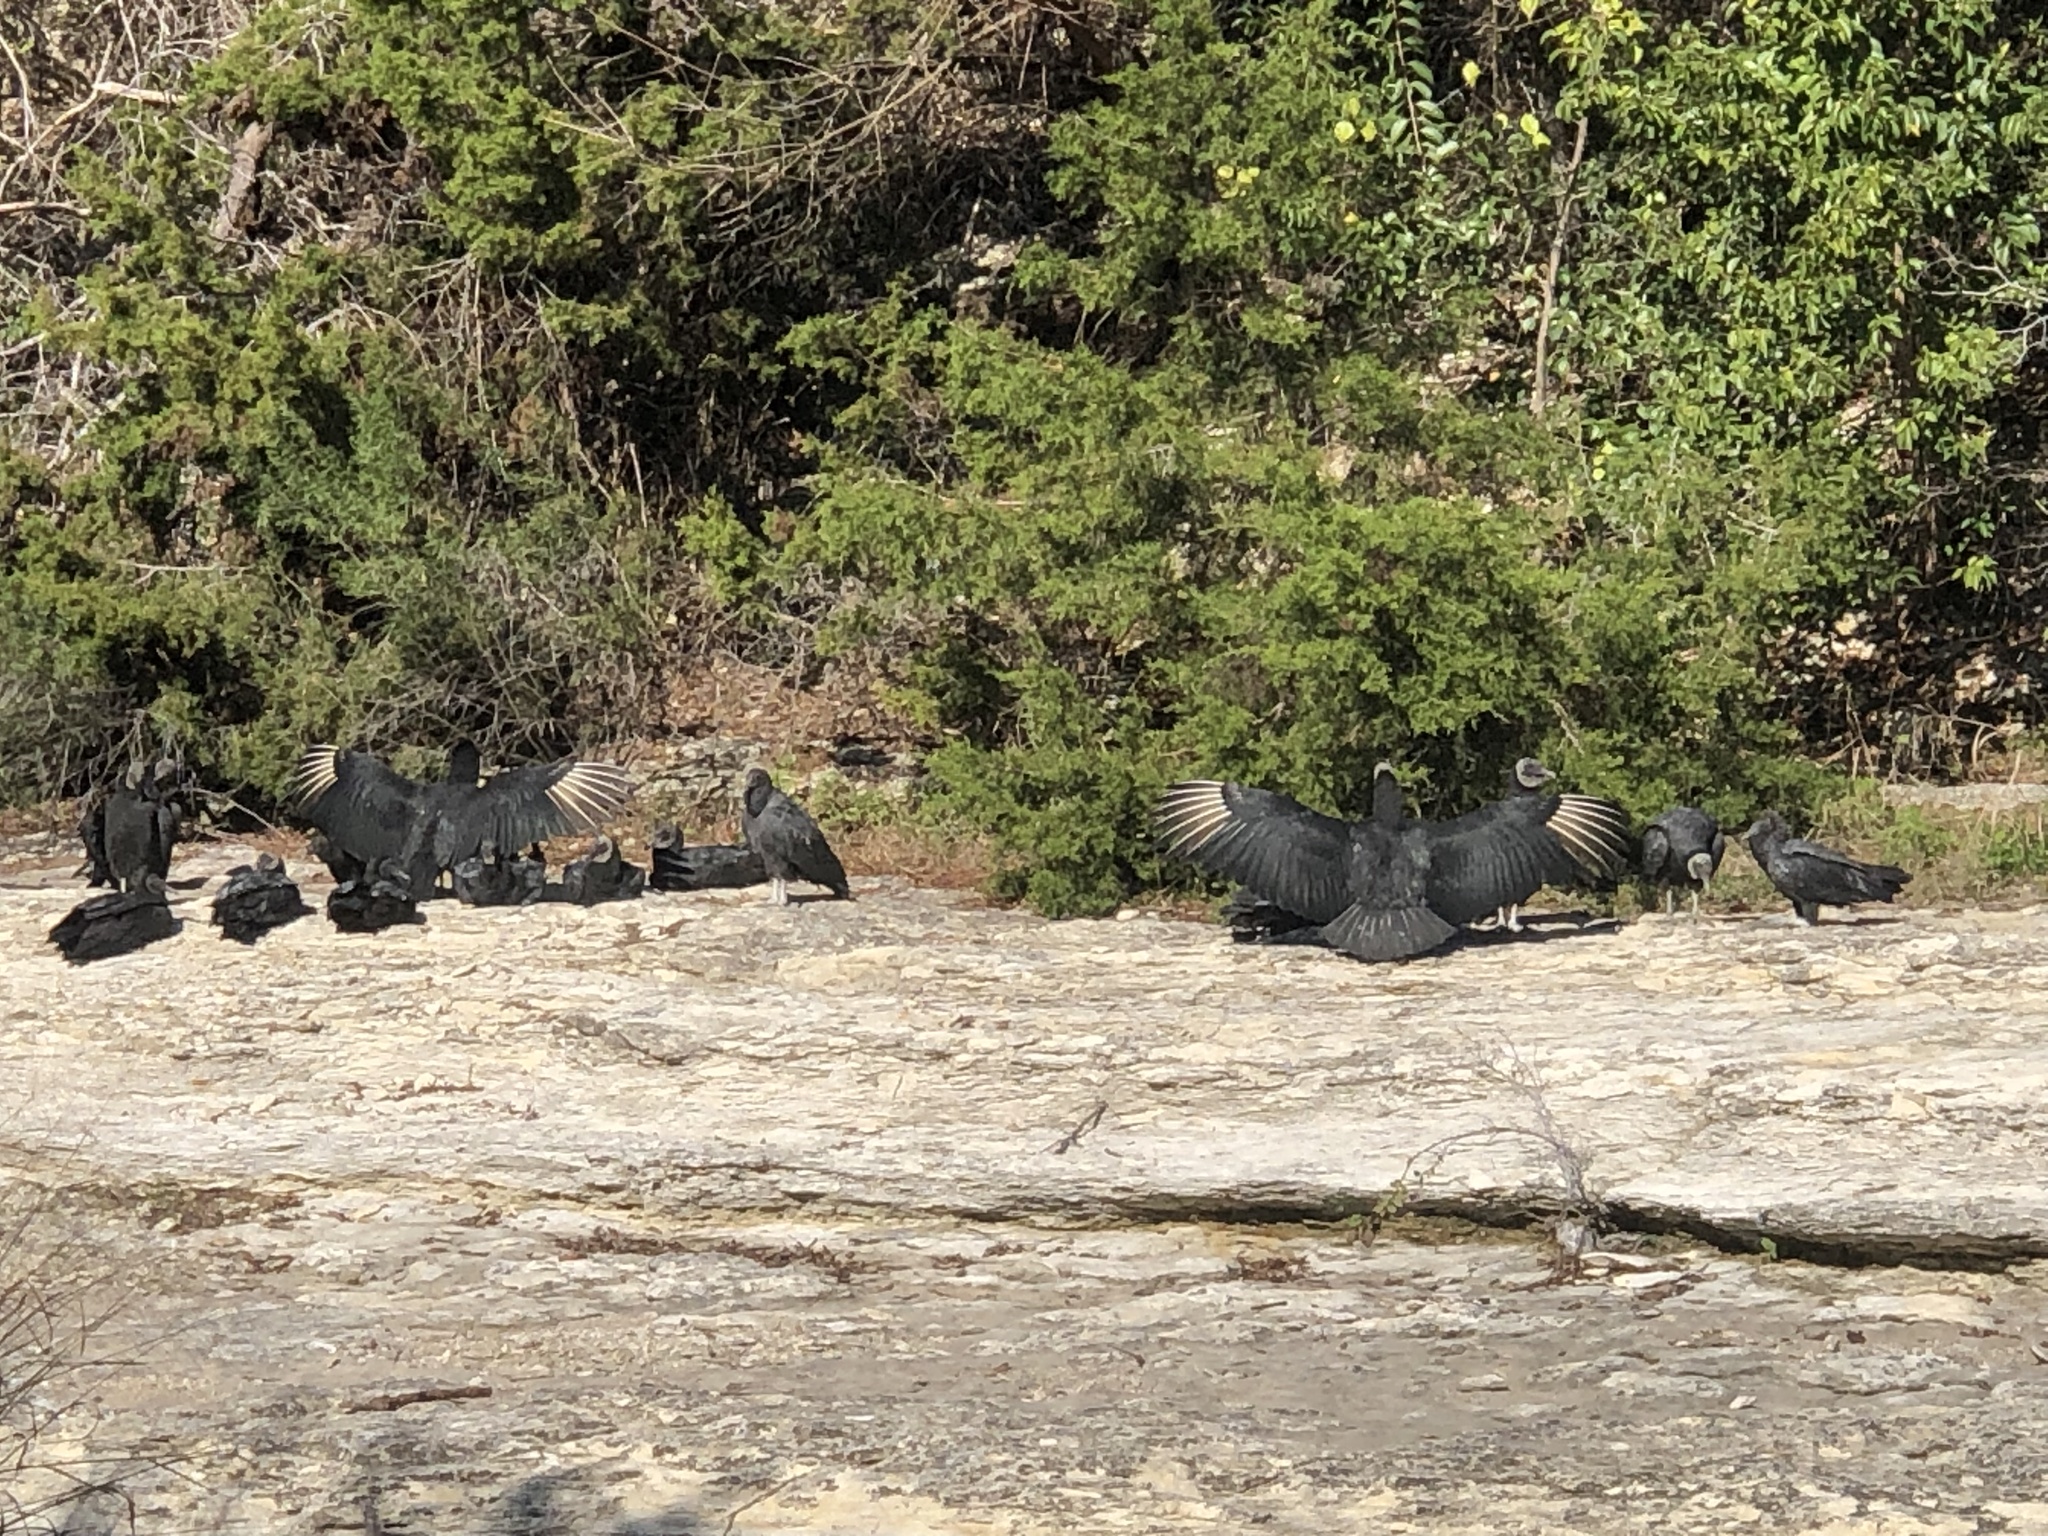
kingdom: Animalia
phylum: Chordata
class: Aves
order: Accipitriformes
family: Cathartidae
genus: Coragyps
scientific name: Coragyps atratus
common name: Black vulture
